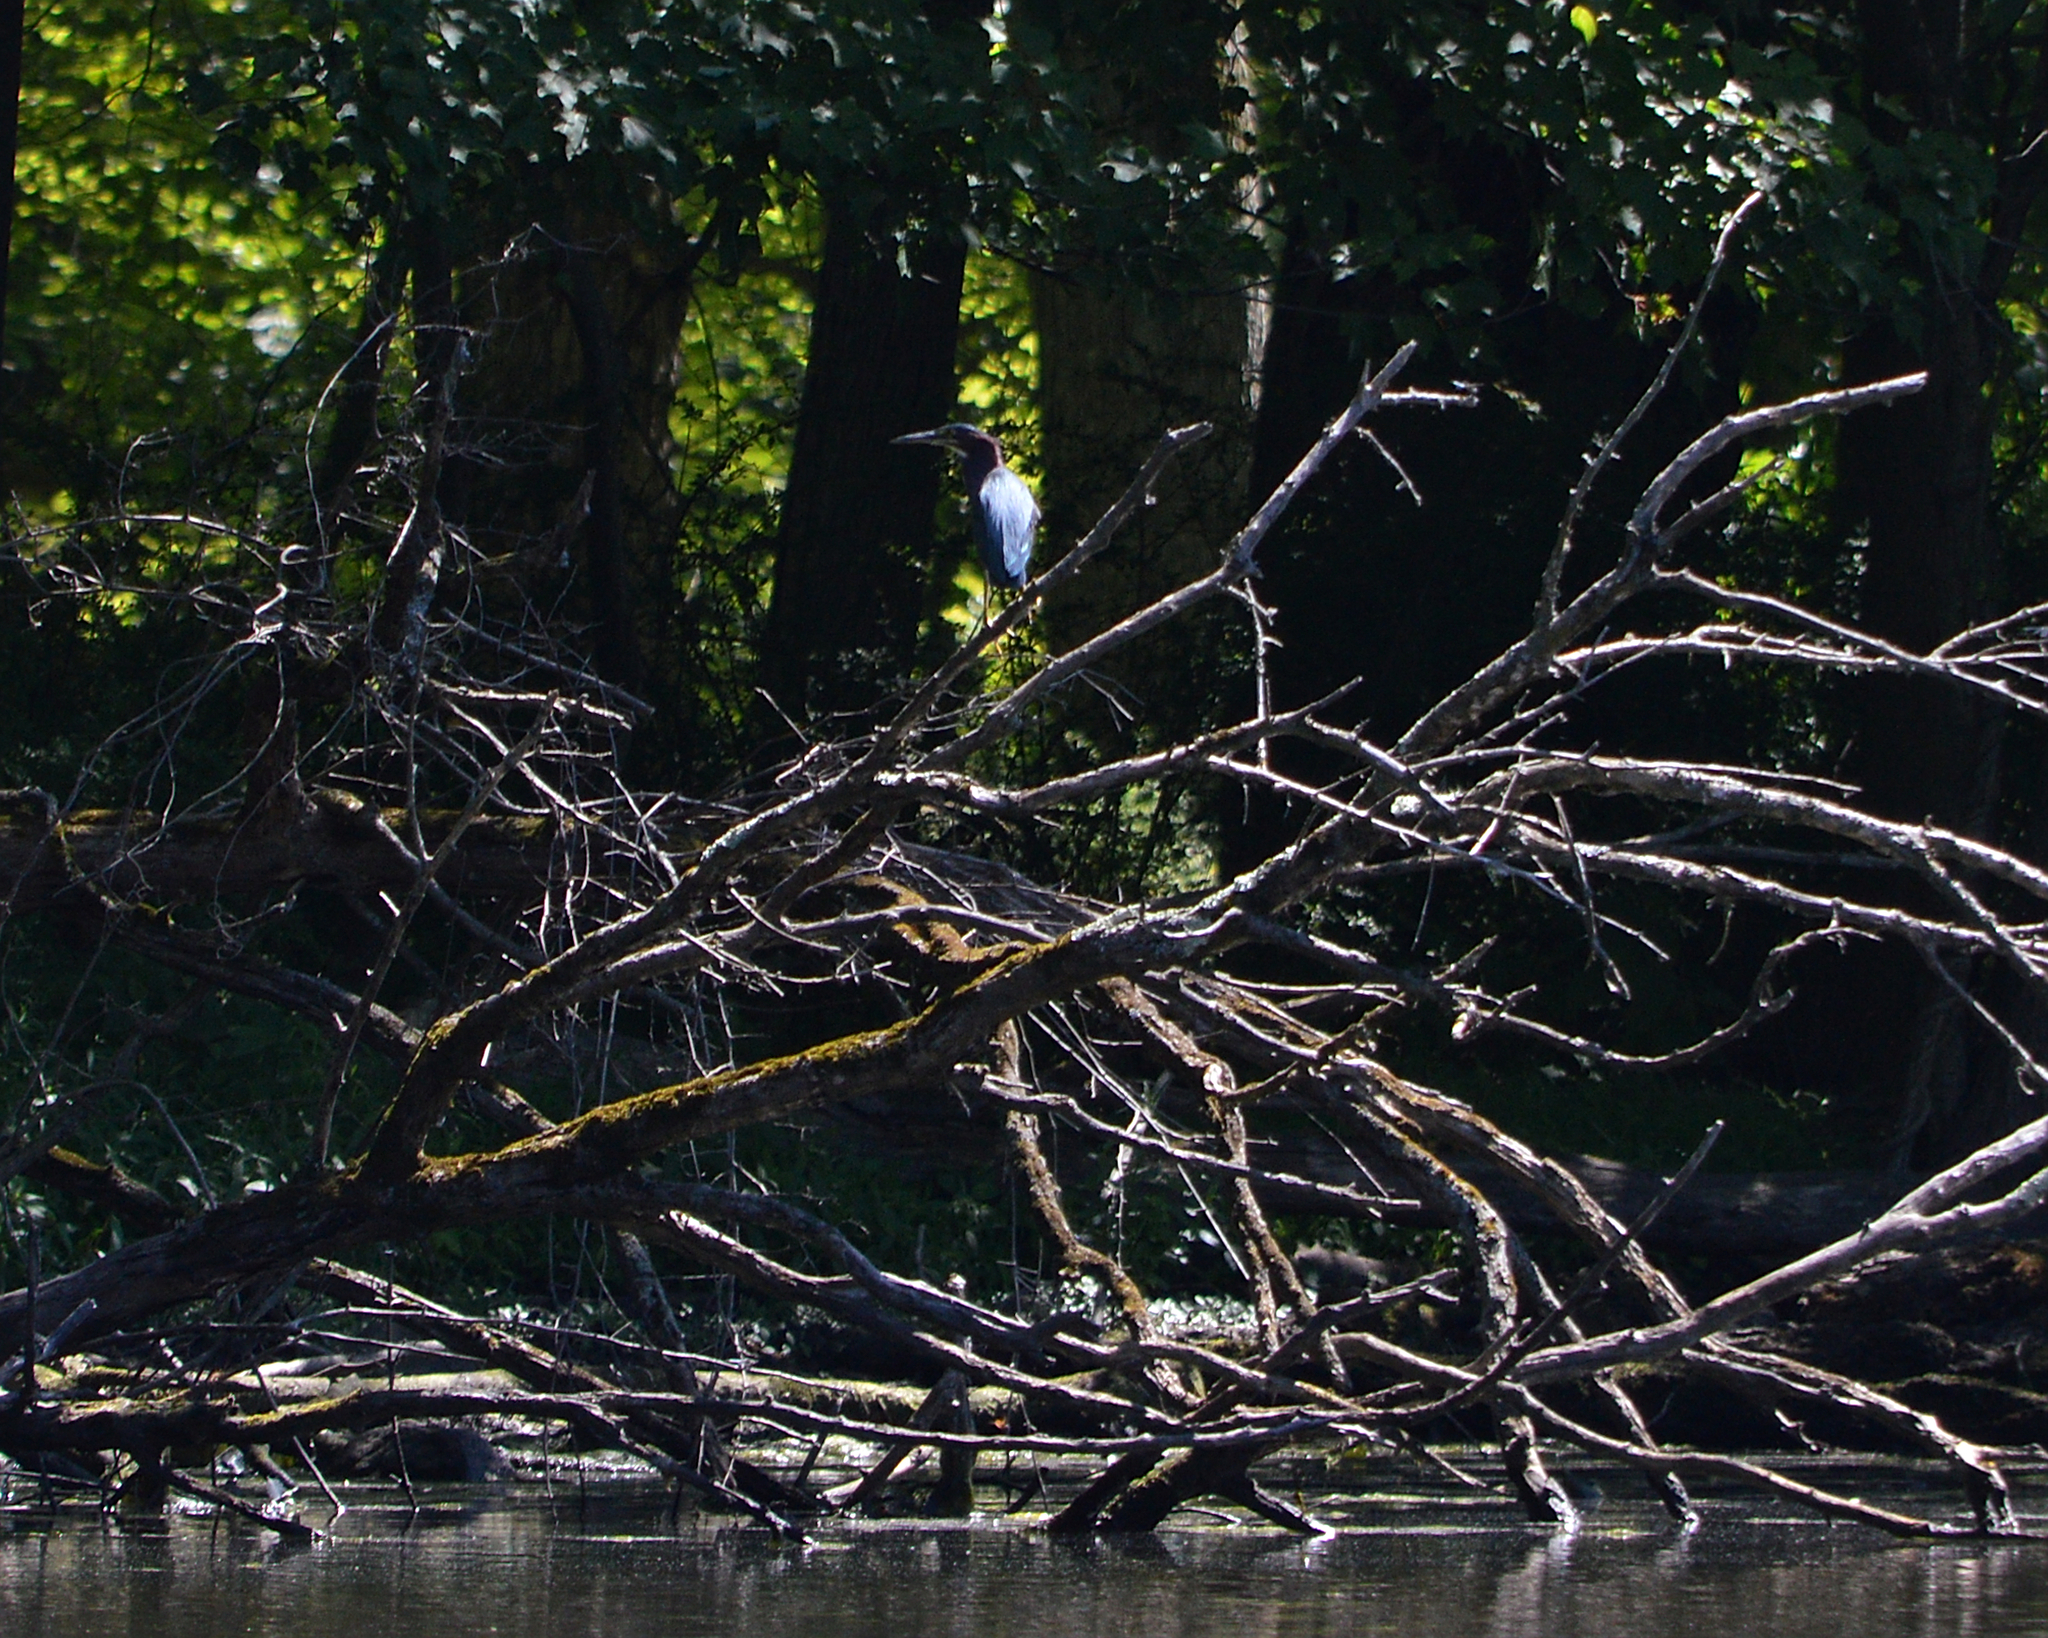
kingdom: Animalia
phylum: Chordata
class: Aves
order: Pelecaniformes
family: Ardeidae
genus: Butorides
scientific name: Butorides virescens
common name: Green heron
